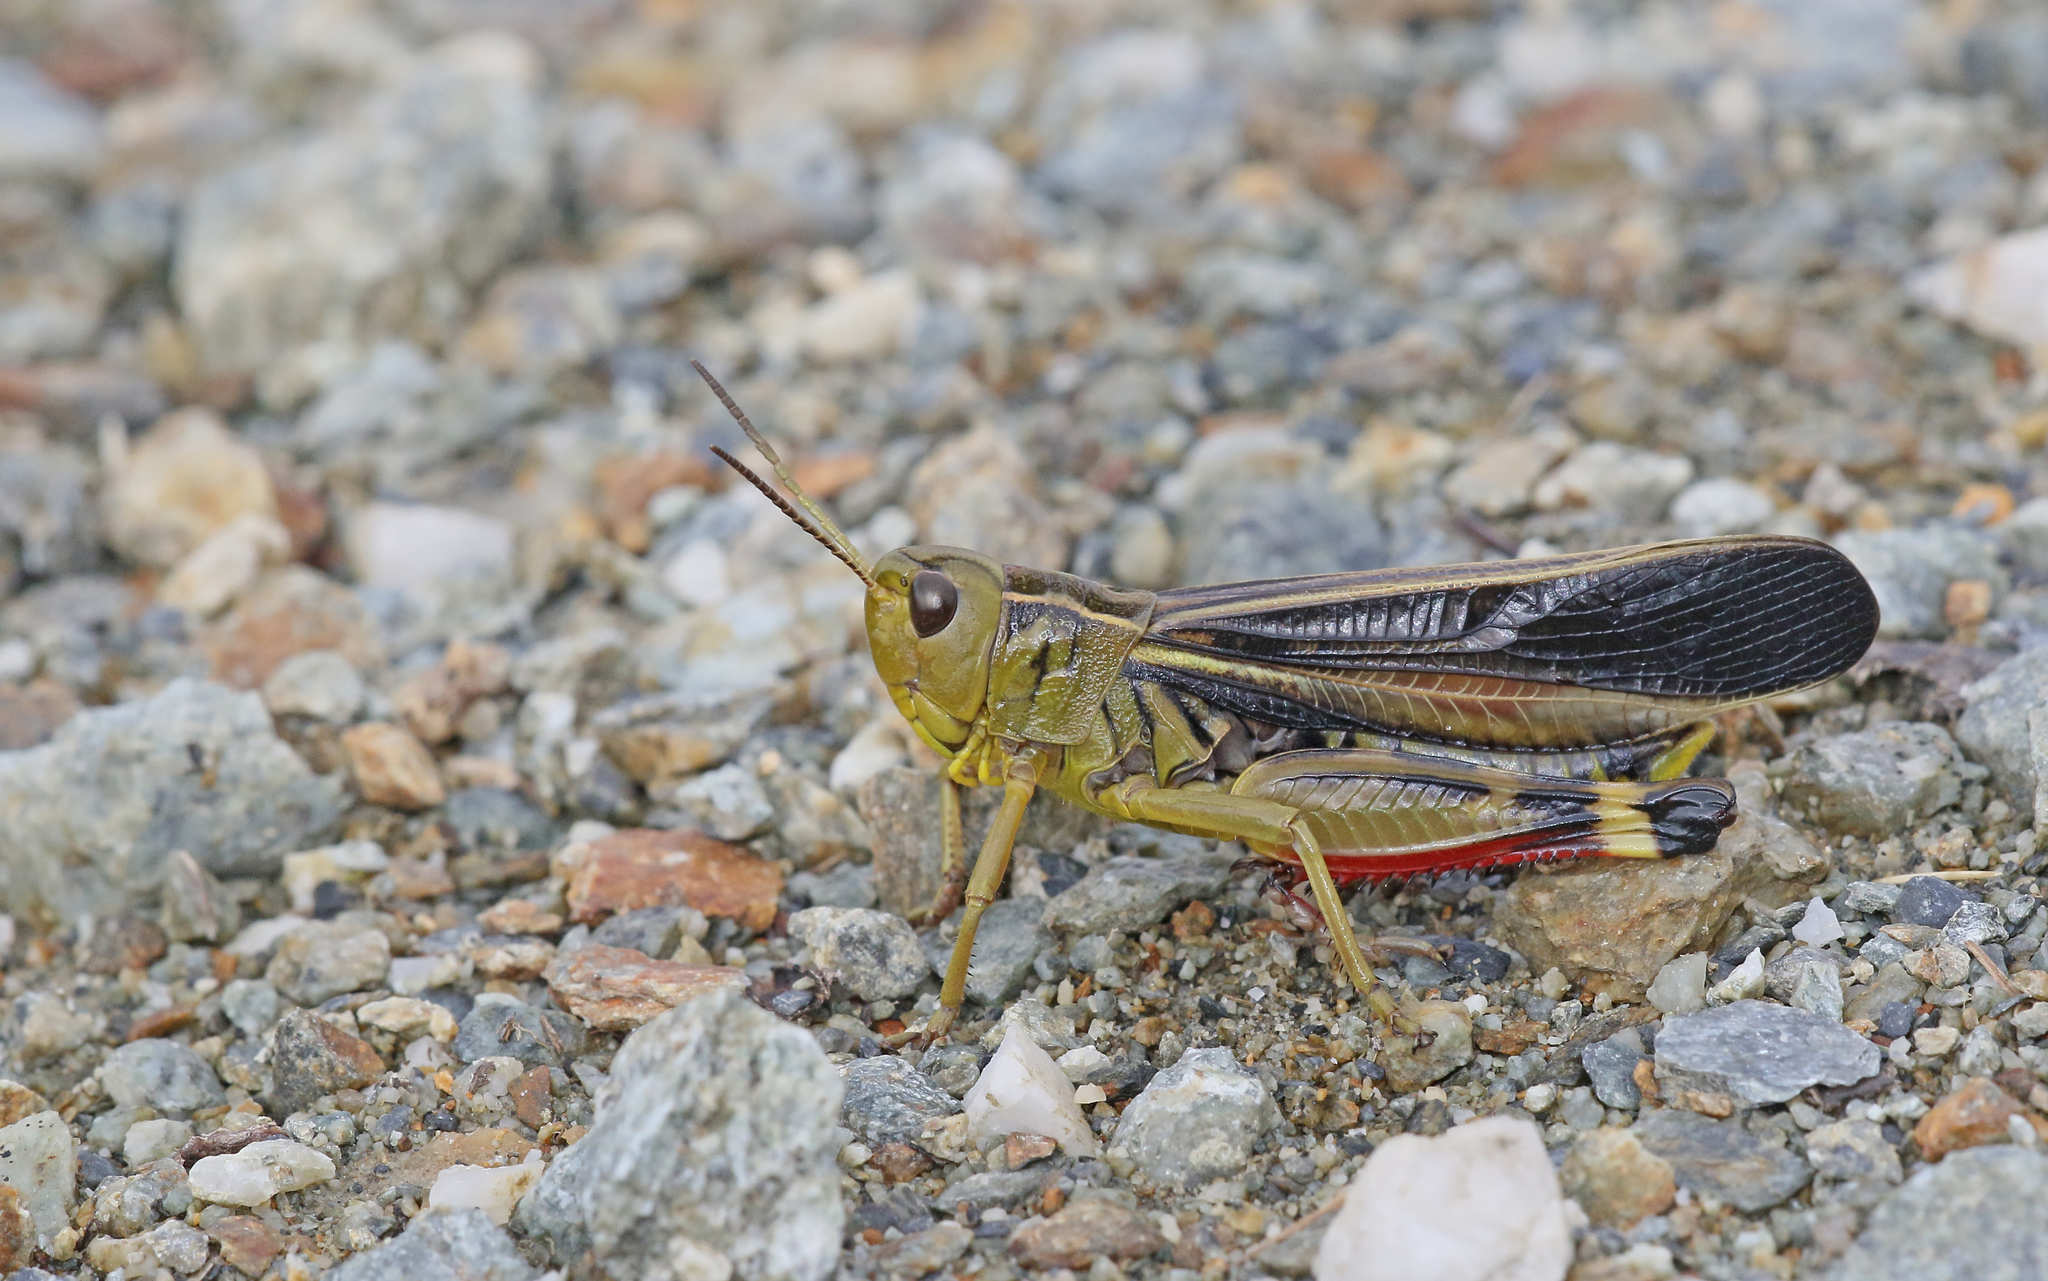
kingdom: Animalia
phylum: Arthropoda
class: Insecta
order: Orthoptera
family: Acrididae
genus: Arcyptera
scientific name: Arcyptera fusca
